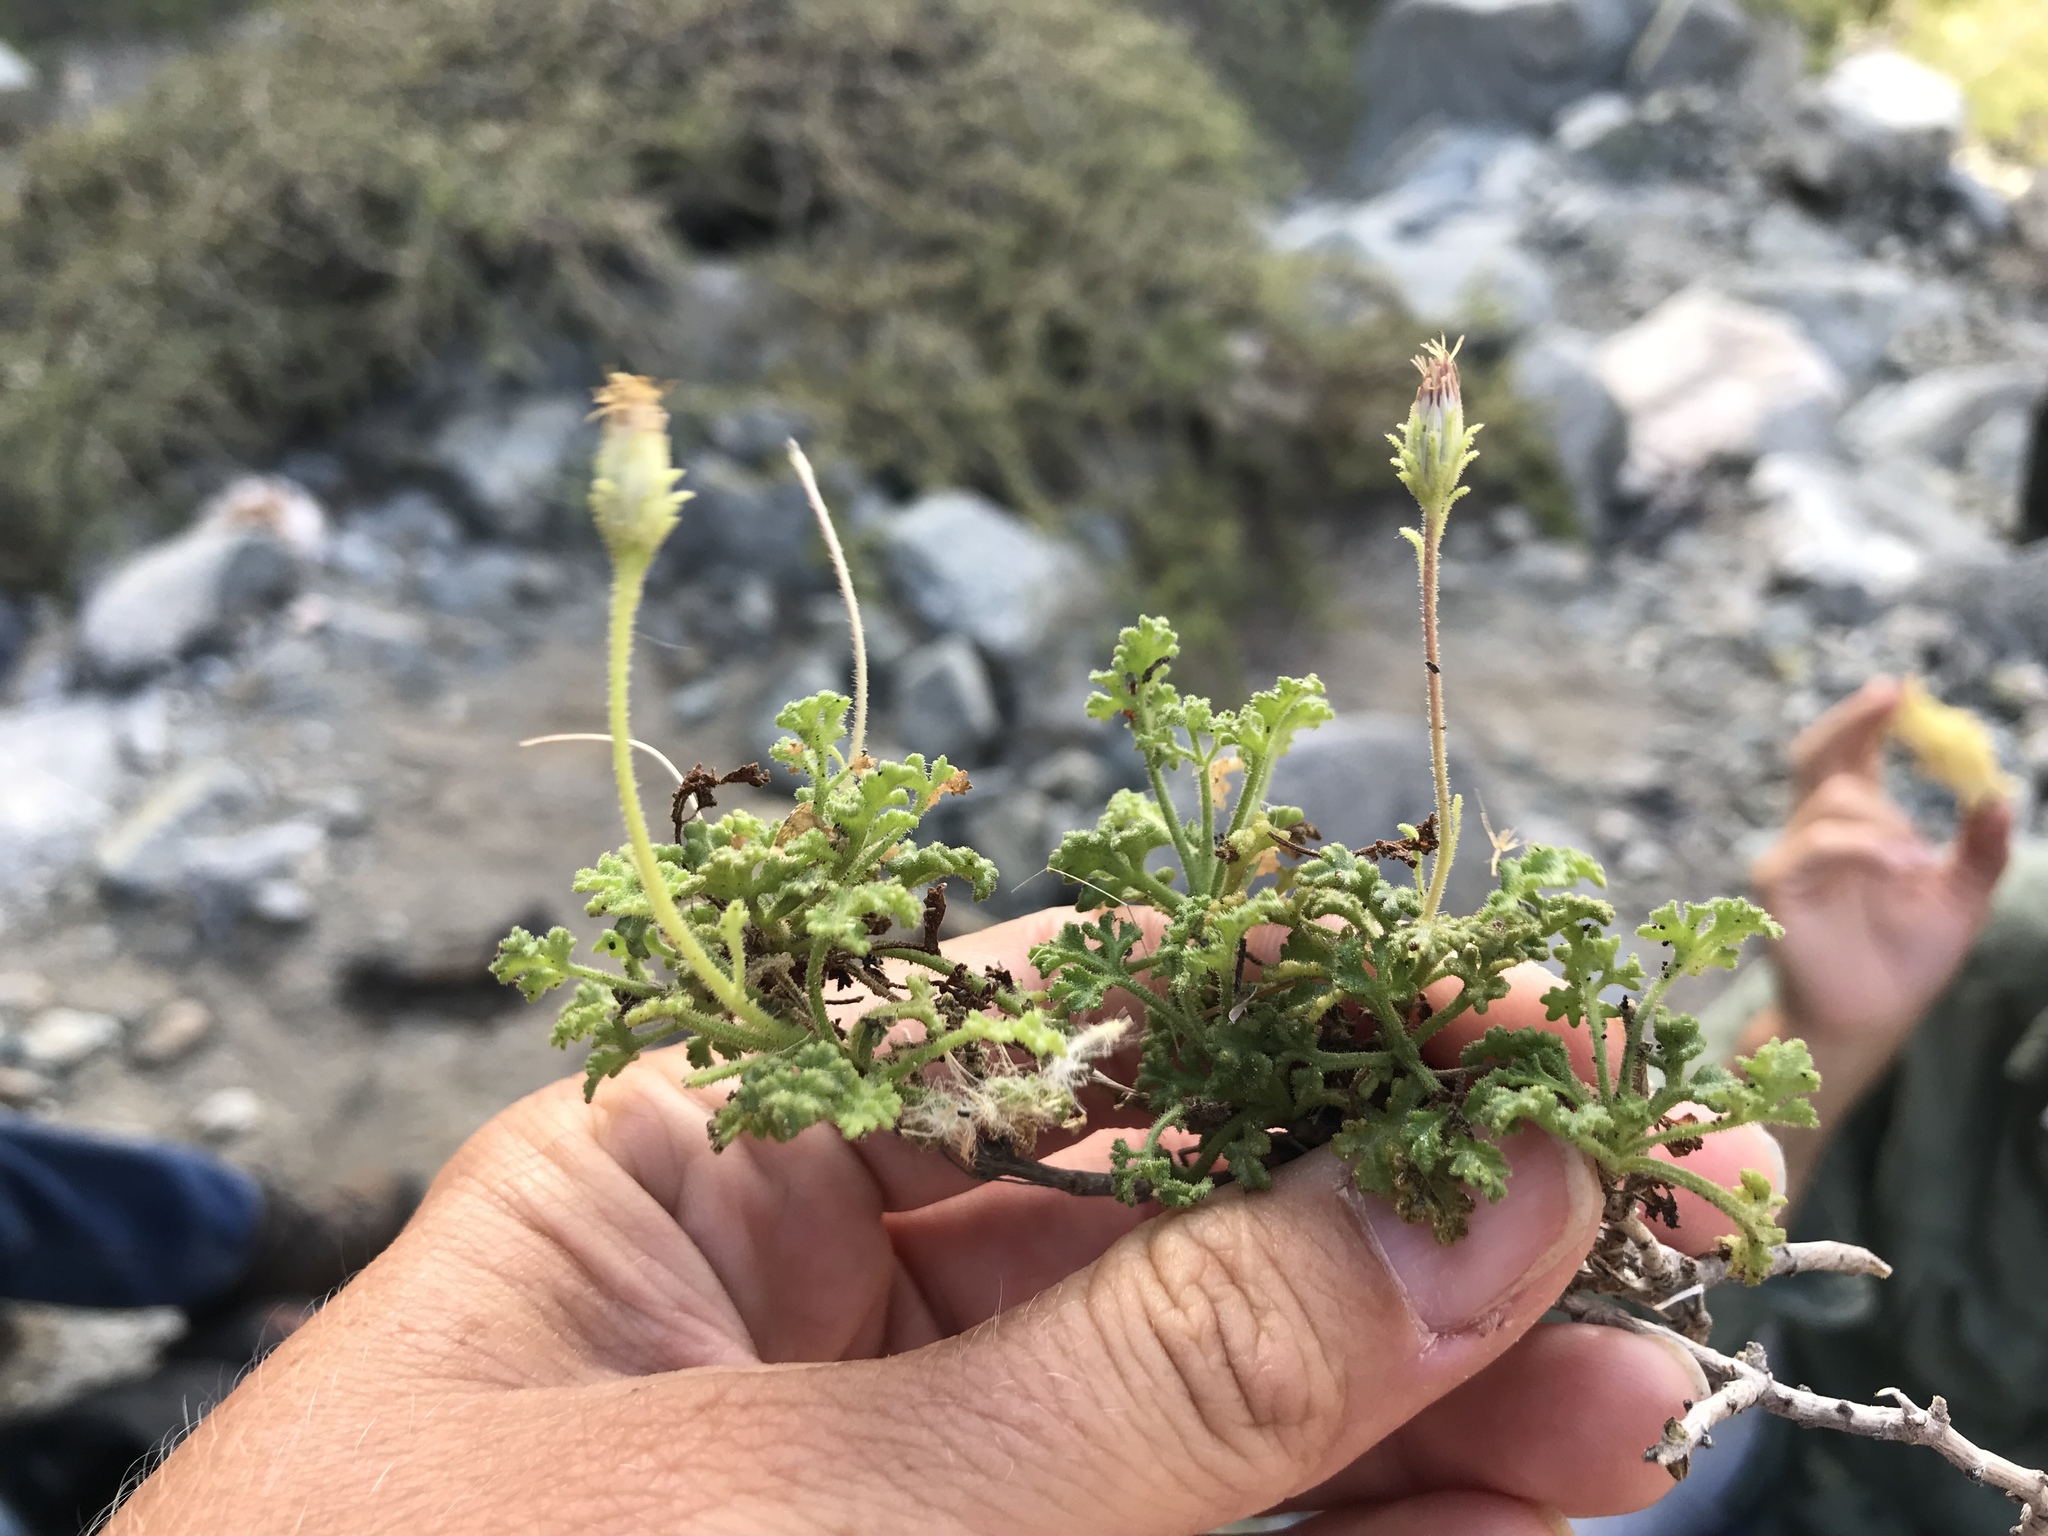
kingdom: Plantae
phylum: Tracheophyta
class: Magnoliopsida
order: Asterales
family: Asteraceae
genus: Pleurocoronis
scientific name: Pleurocoronis gentryi
